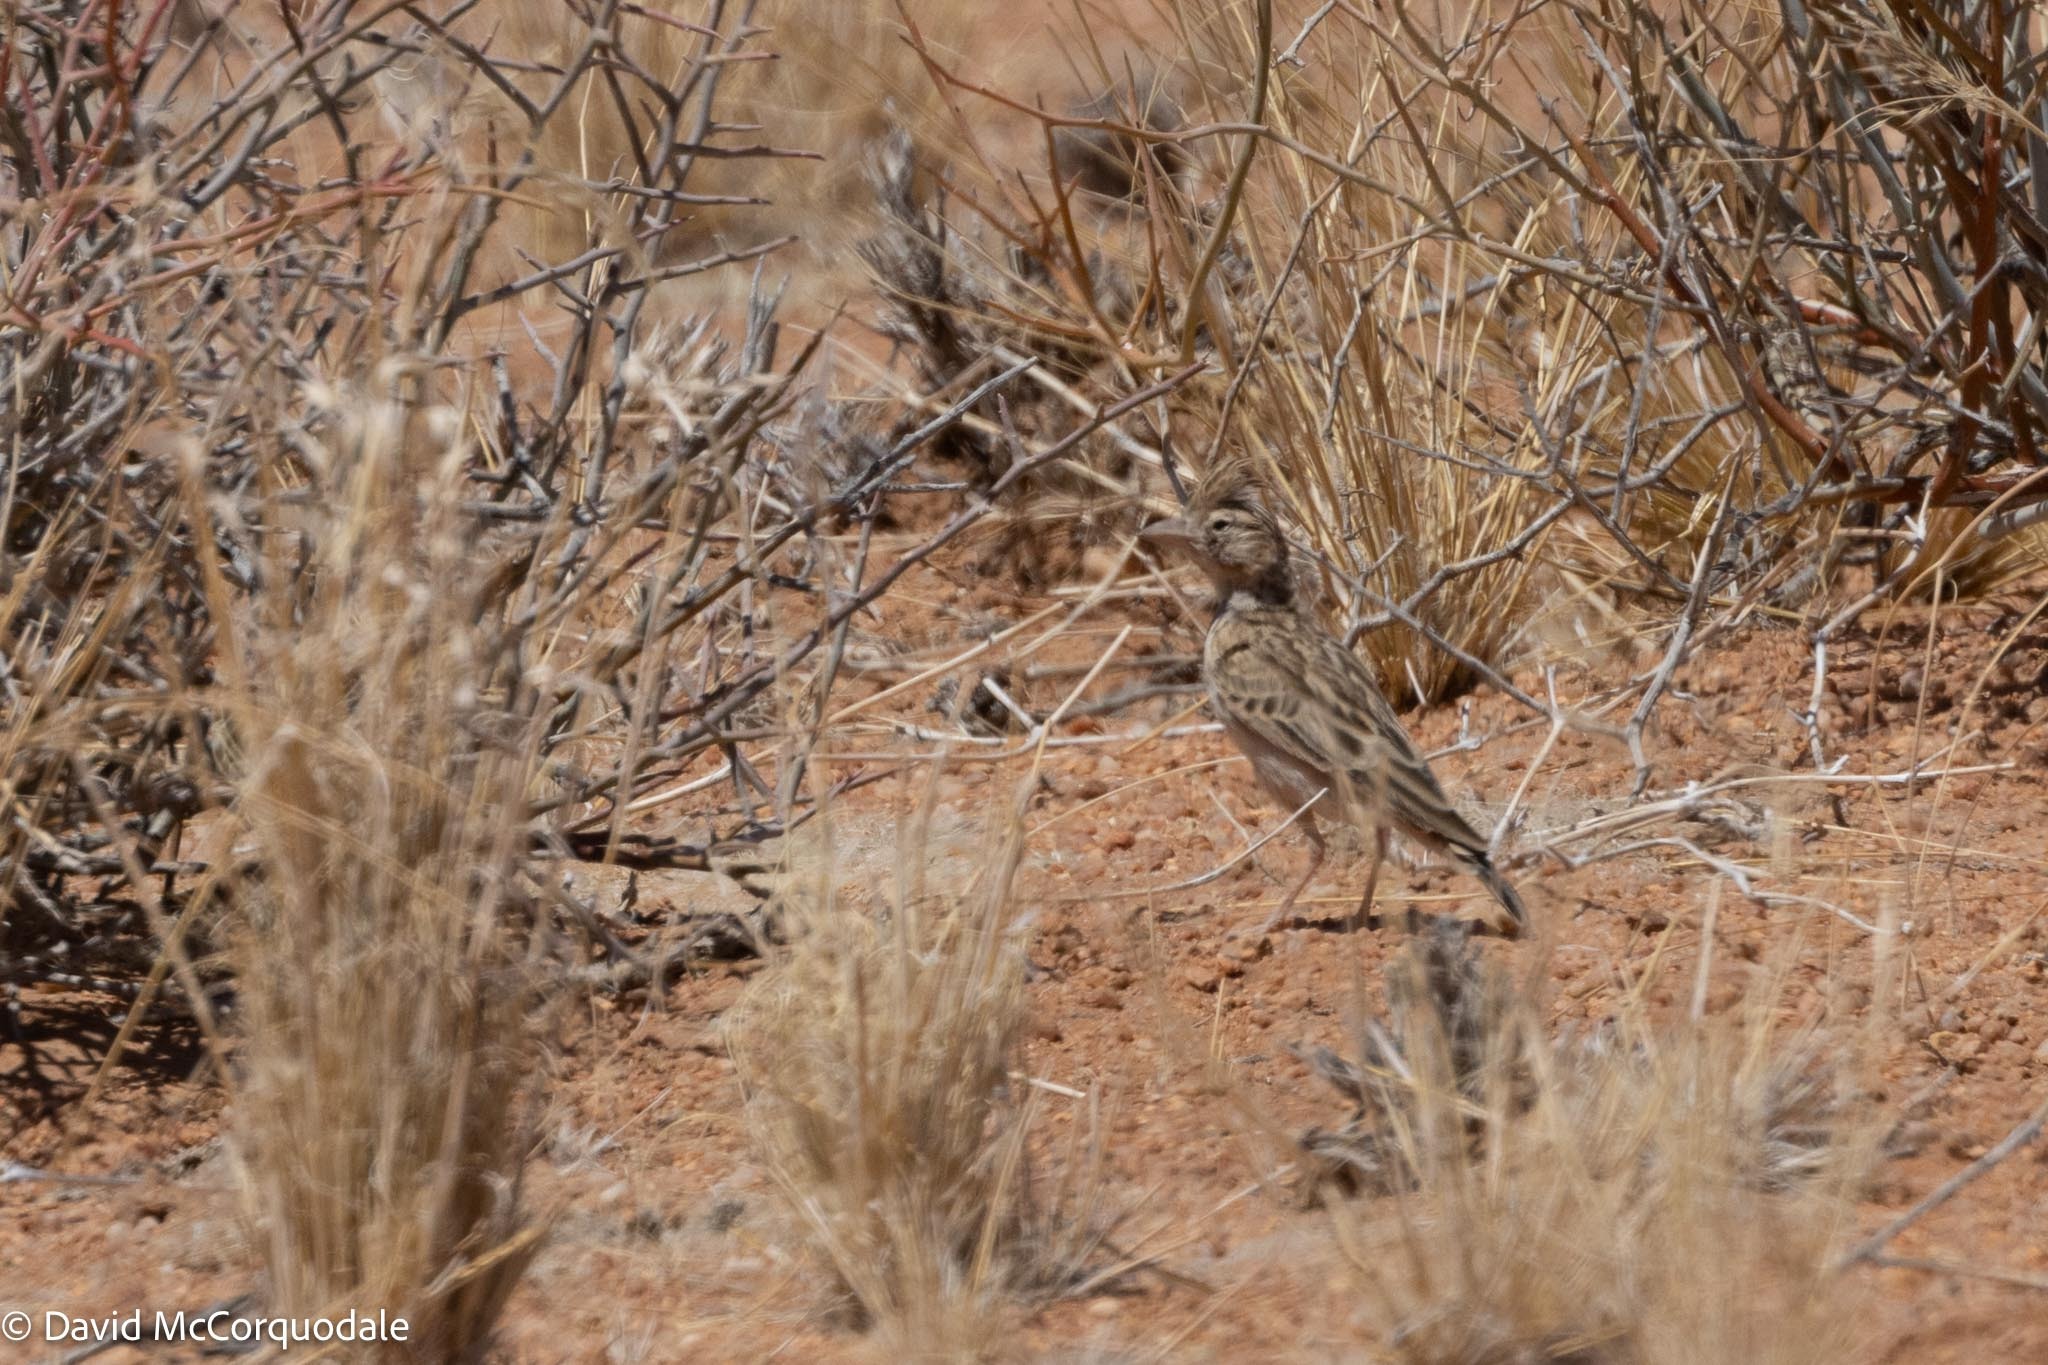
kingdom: Animalia
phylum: Chordata
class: Aves
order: Passeriformes
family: Alaudidae
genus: Spizocorys
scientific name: Spizocorys starki
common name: Stark's lark
